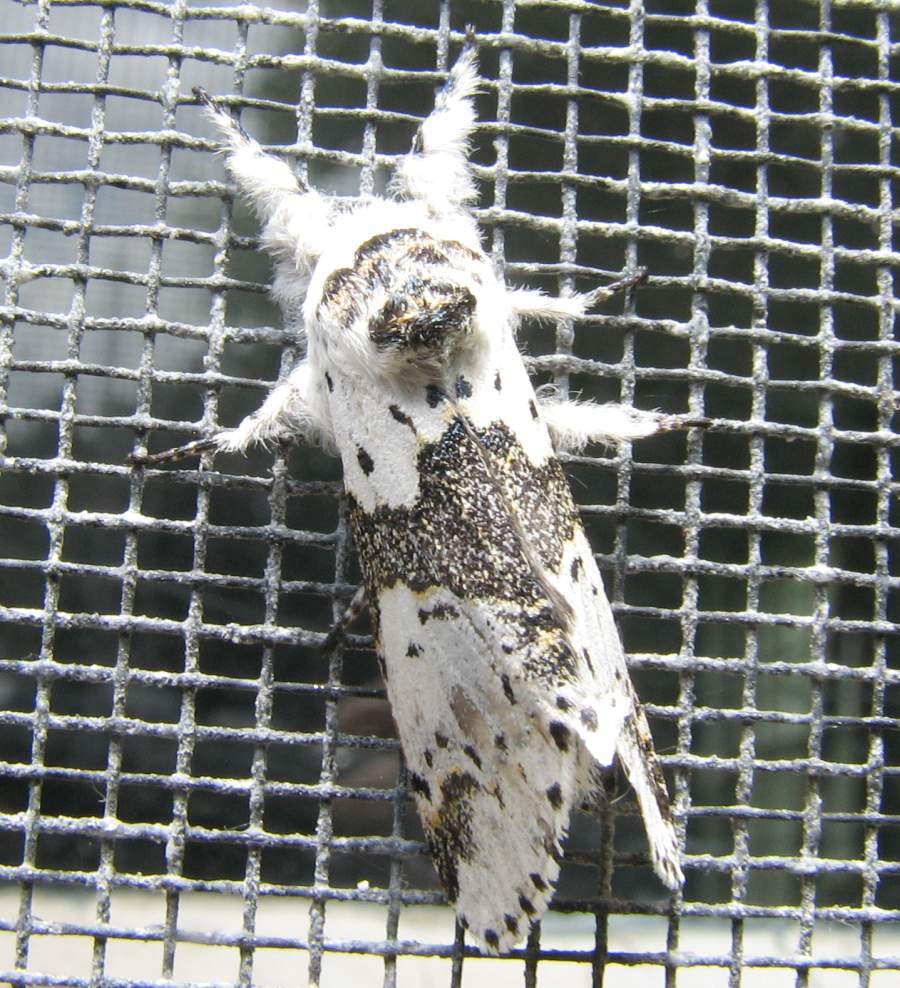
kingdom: Animalia
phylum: Arthropoda
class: Insecta
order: Lepidoptera
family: Notodontidae
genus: Furcula
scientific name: Furcula borealis
